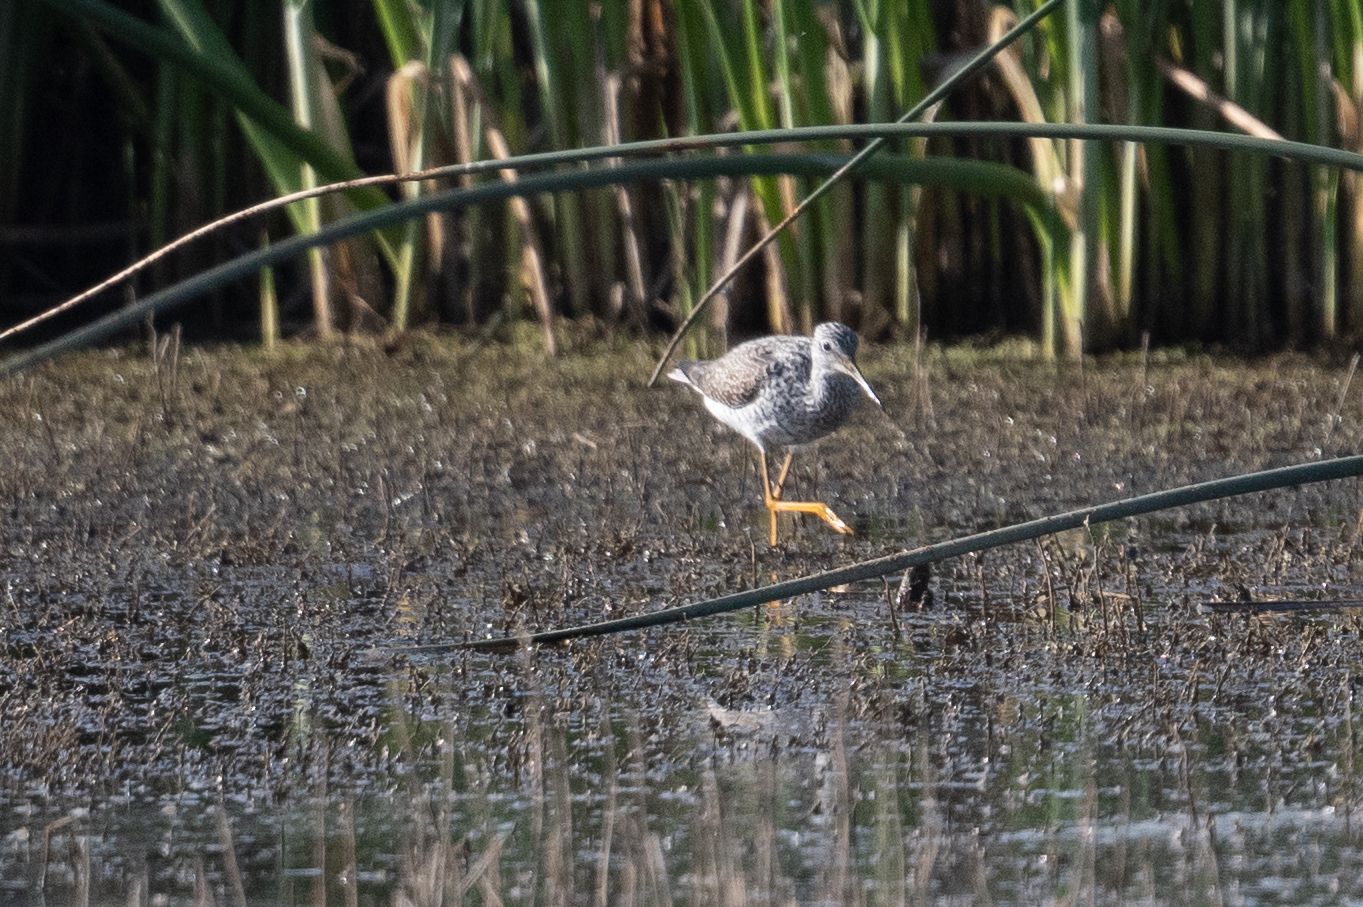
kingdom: Animalia
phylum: Chordata
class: Aves
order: Charadriiformes
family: Scolopacidae
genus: Tringa
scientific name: Tringa melanoleuca
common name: Greater yellowlegs
